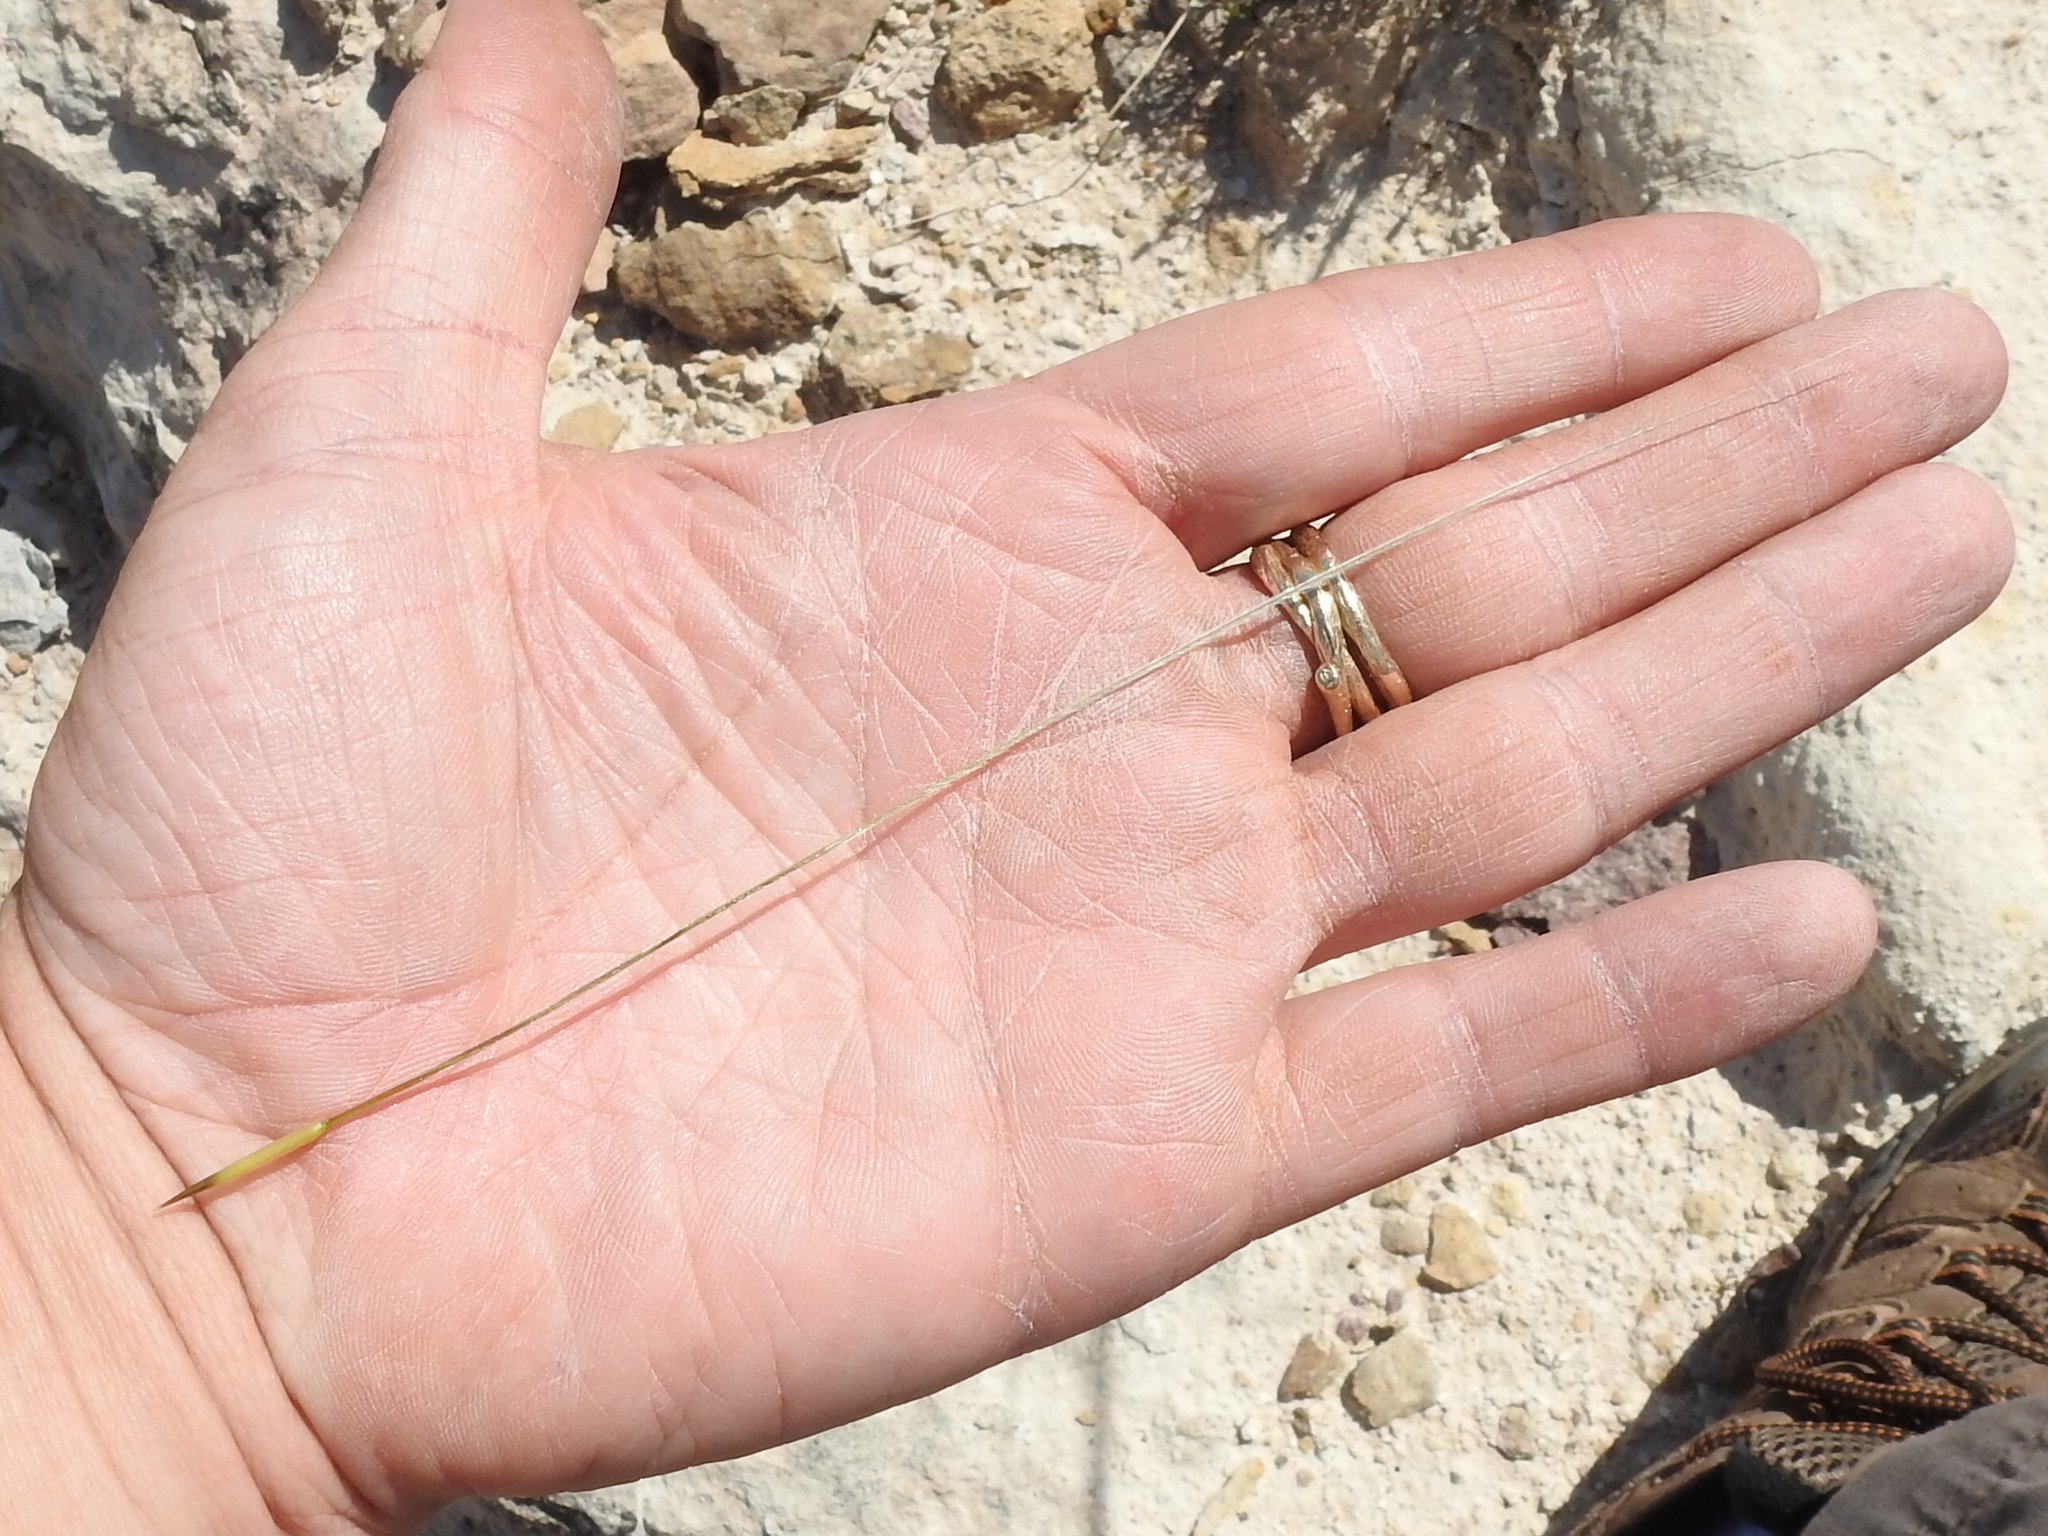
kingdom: Plantae
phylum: Tracheophyta
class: Liliopsida
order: Poales
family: Poaceae
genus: Hesperostipa
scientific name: Hesperostipa neomexicana
